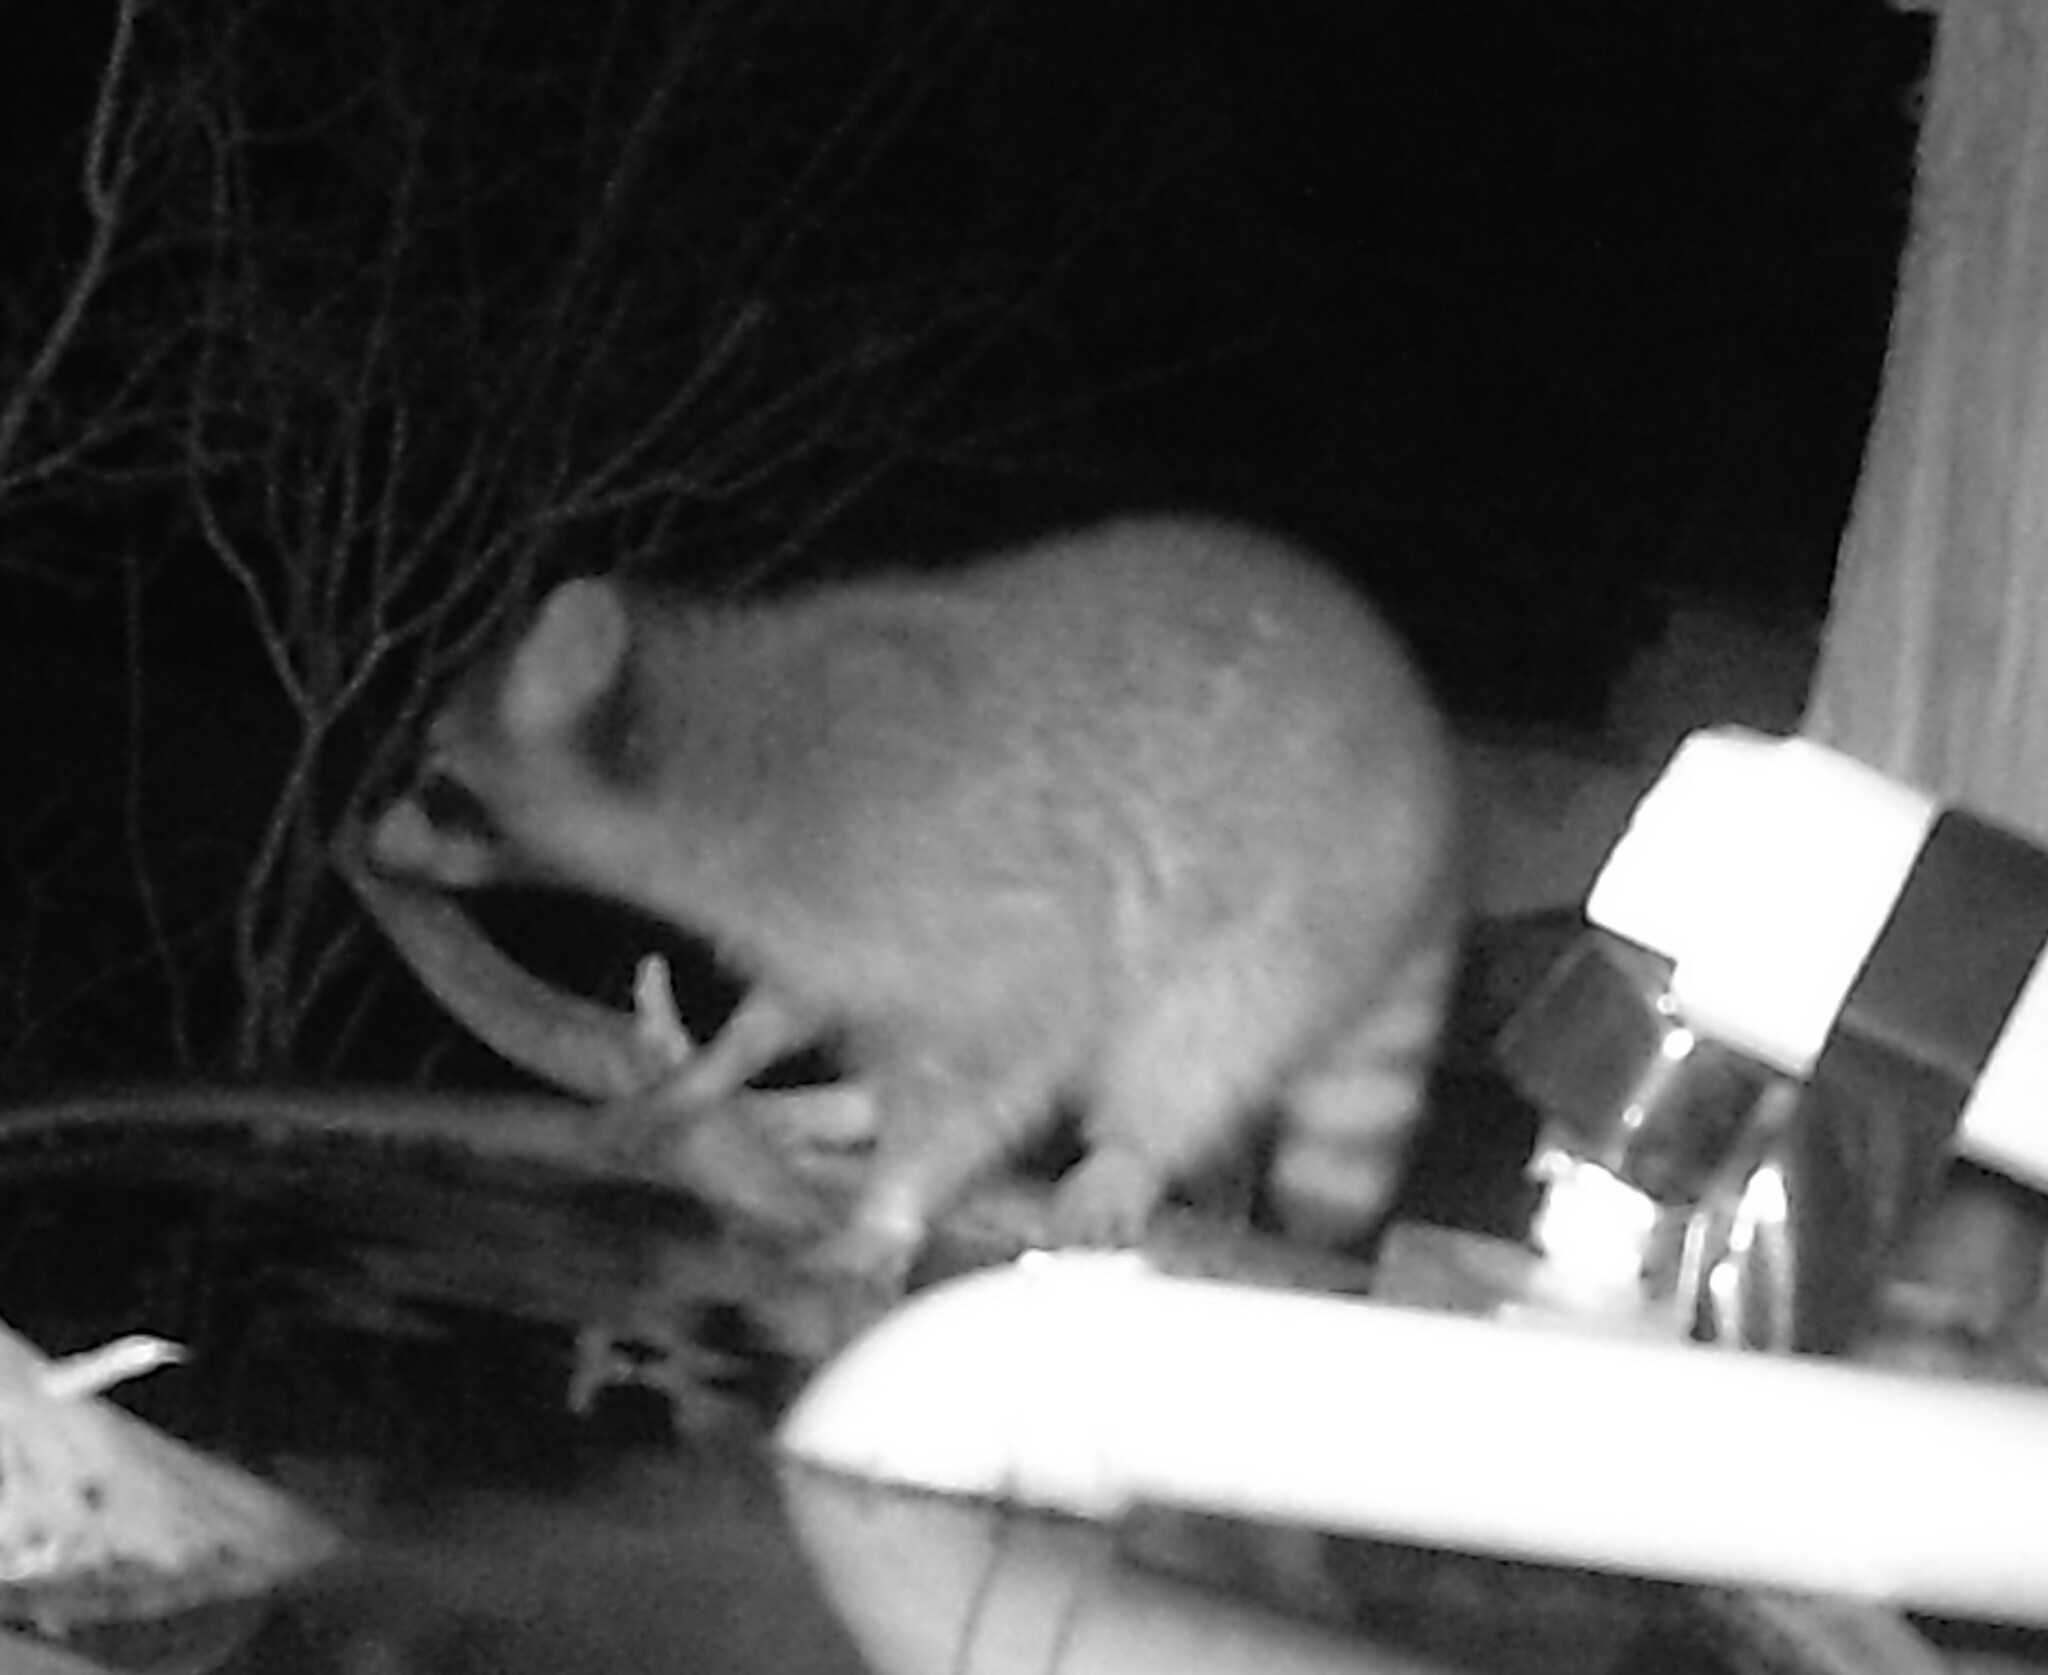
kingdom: Animalia
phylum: Chordata
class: Mammalia
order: Carnivora
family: Procyonidae
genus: Procyon
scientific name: Procyon lotor
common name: Raccoon
